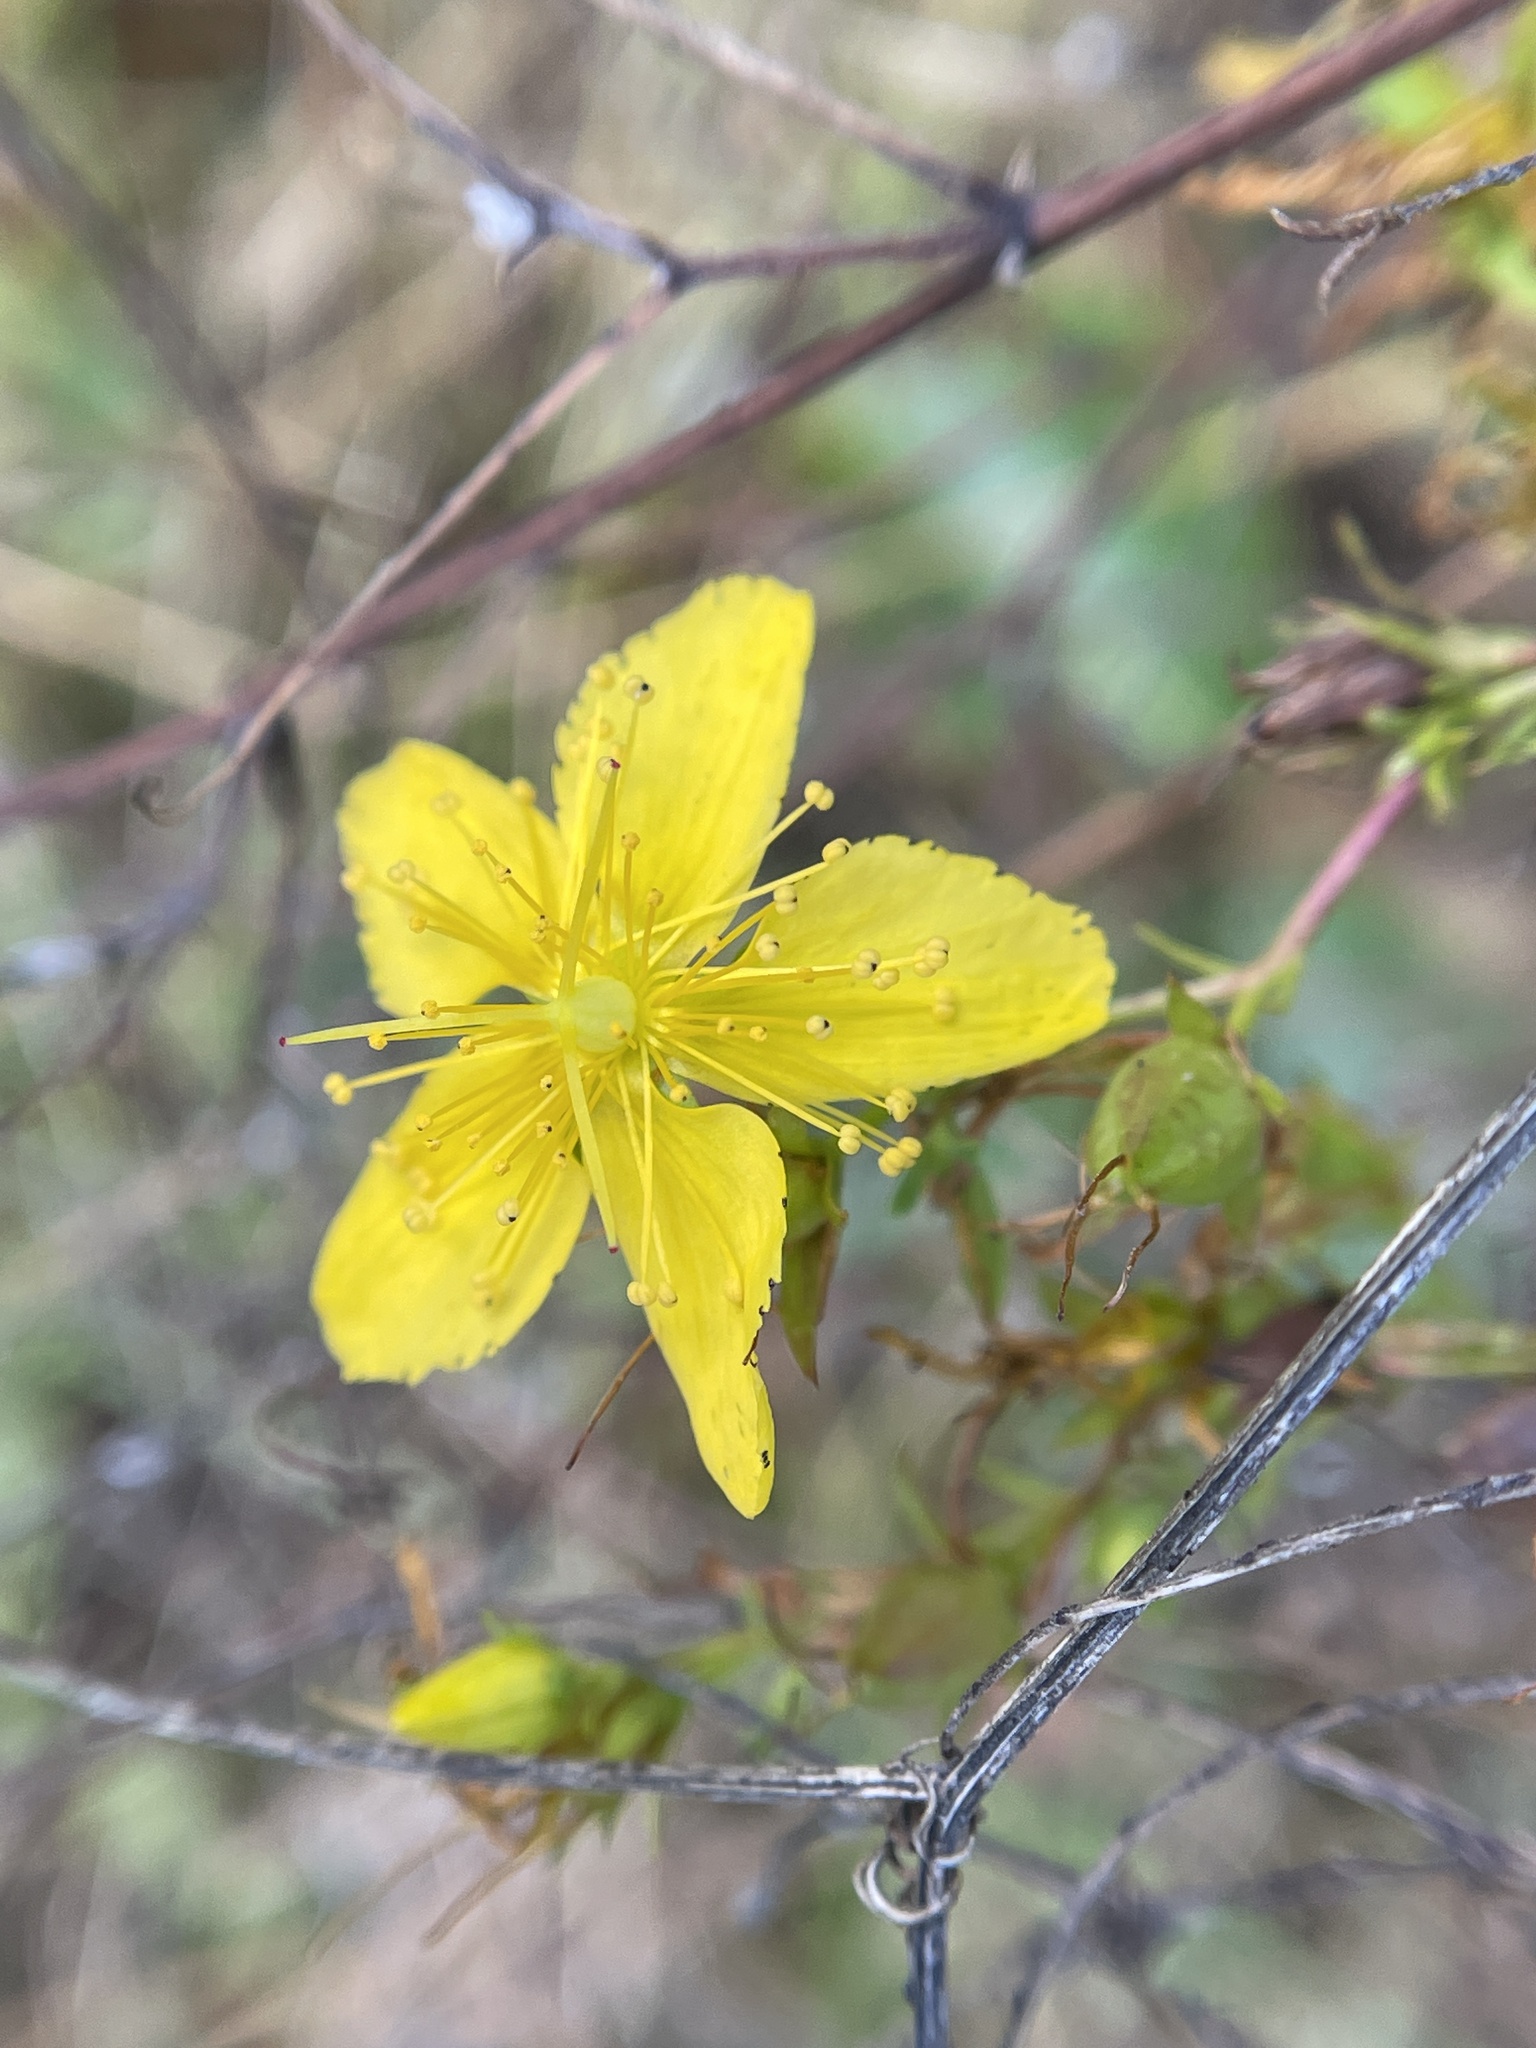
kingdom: Plantae
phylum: Tracheophyta
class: Magnoliopsida
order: Malpighiales
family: Hypericaceae
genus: Hypericum
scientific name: Hypericum perforatum
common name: Common st. johnswort
